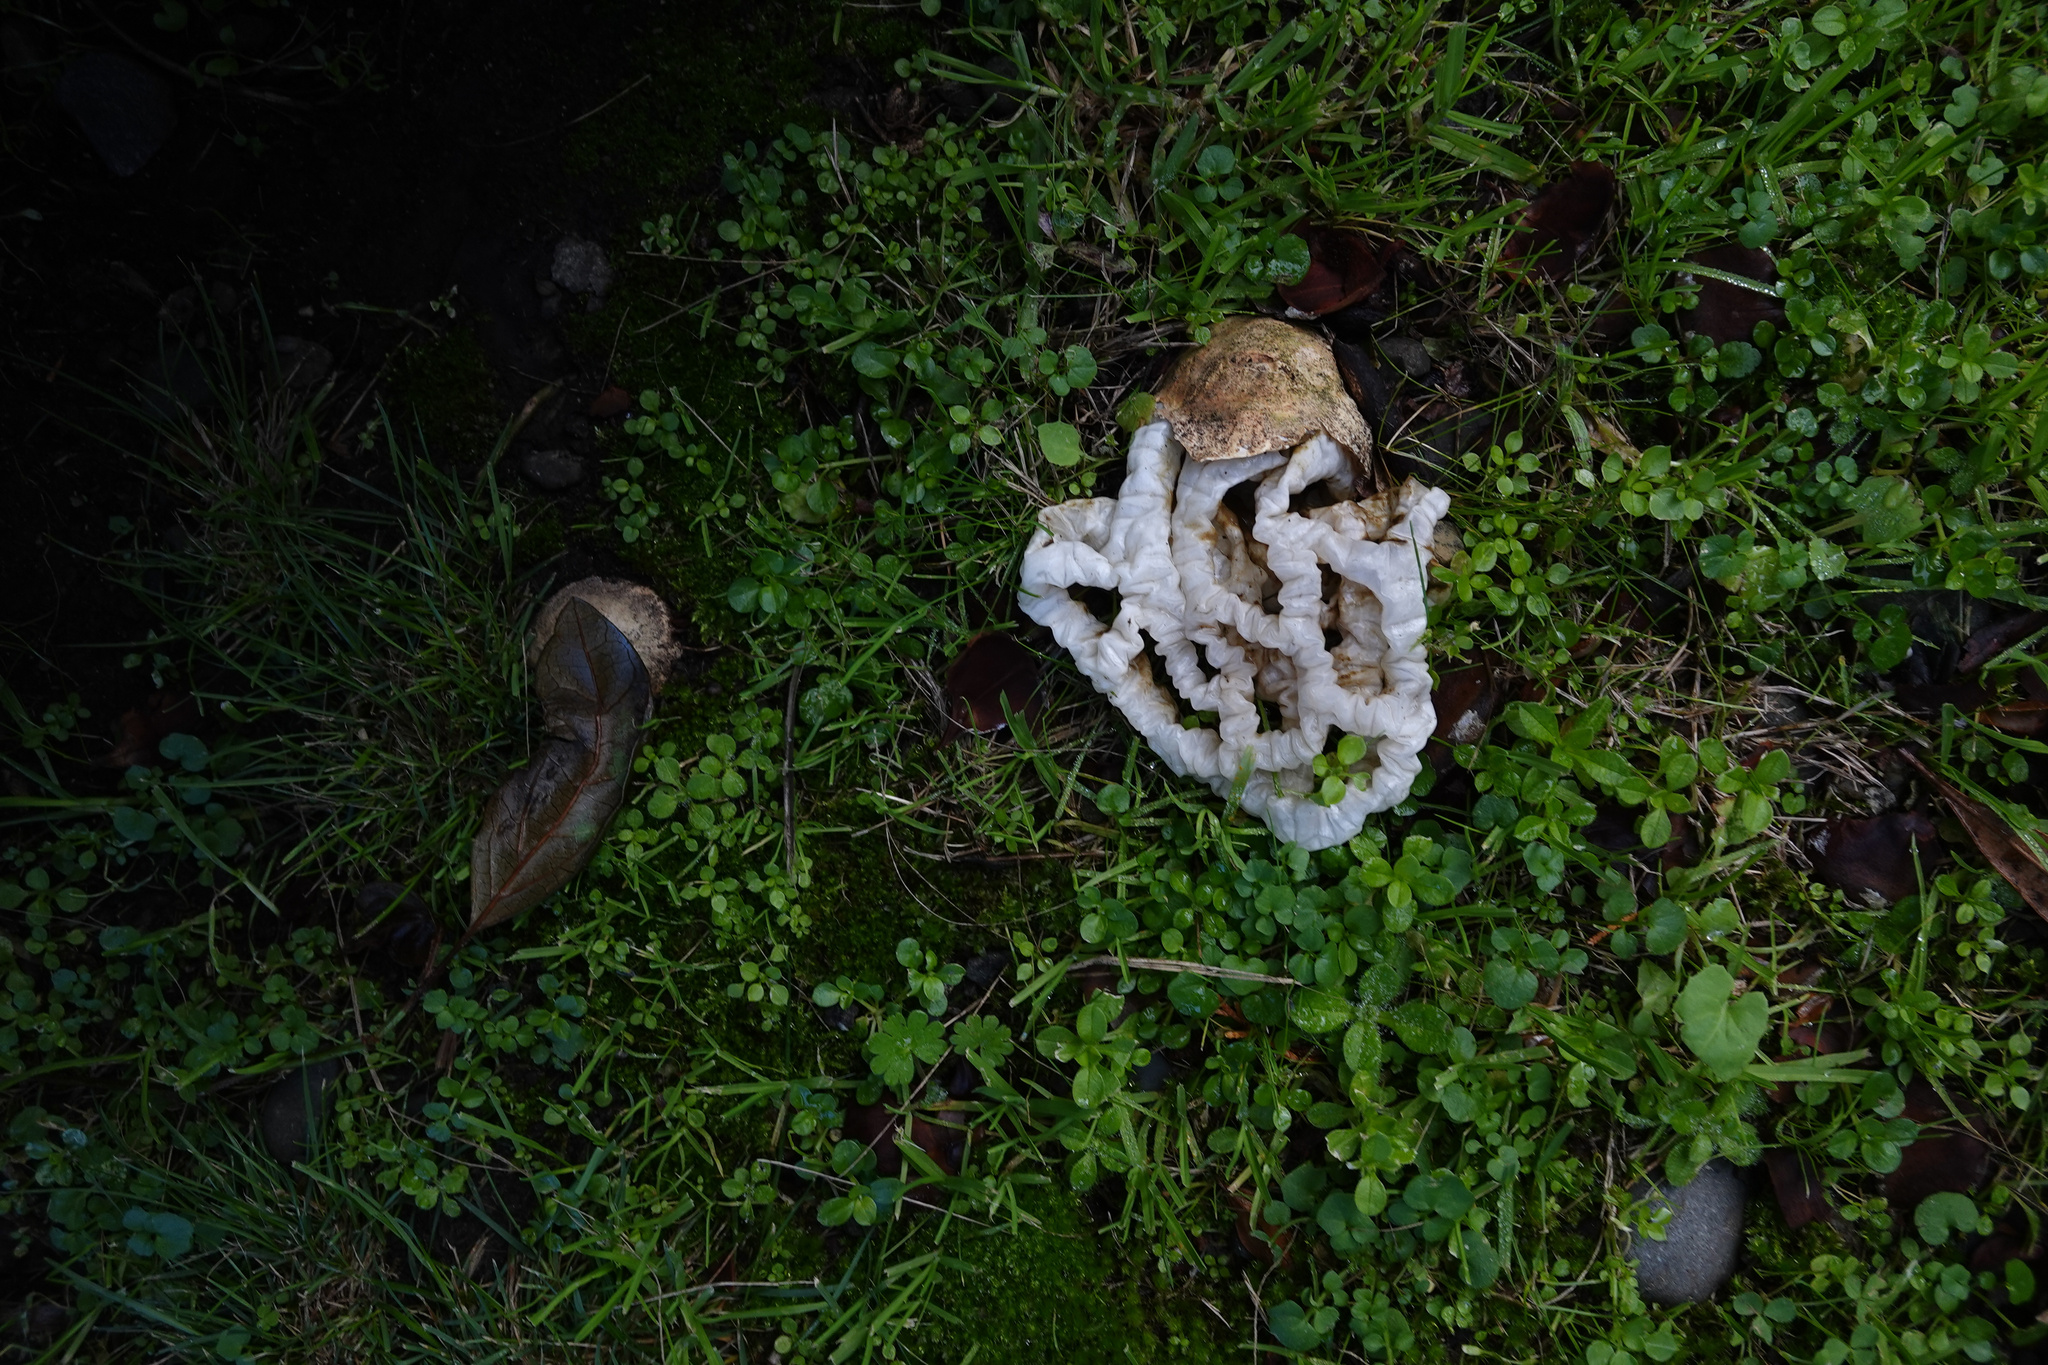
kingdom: Fungi
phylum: Basidiomycota
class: Agaricomycetes
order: Phallales
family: Phallaceae
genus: Ileodictyon
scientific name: Ileodictyon cibarium
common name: Basket fungus
